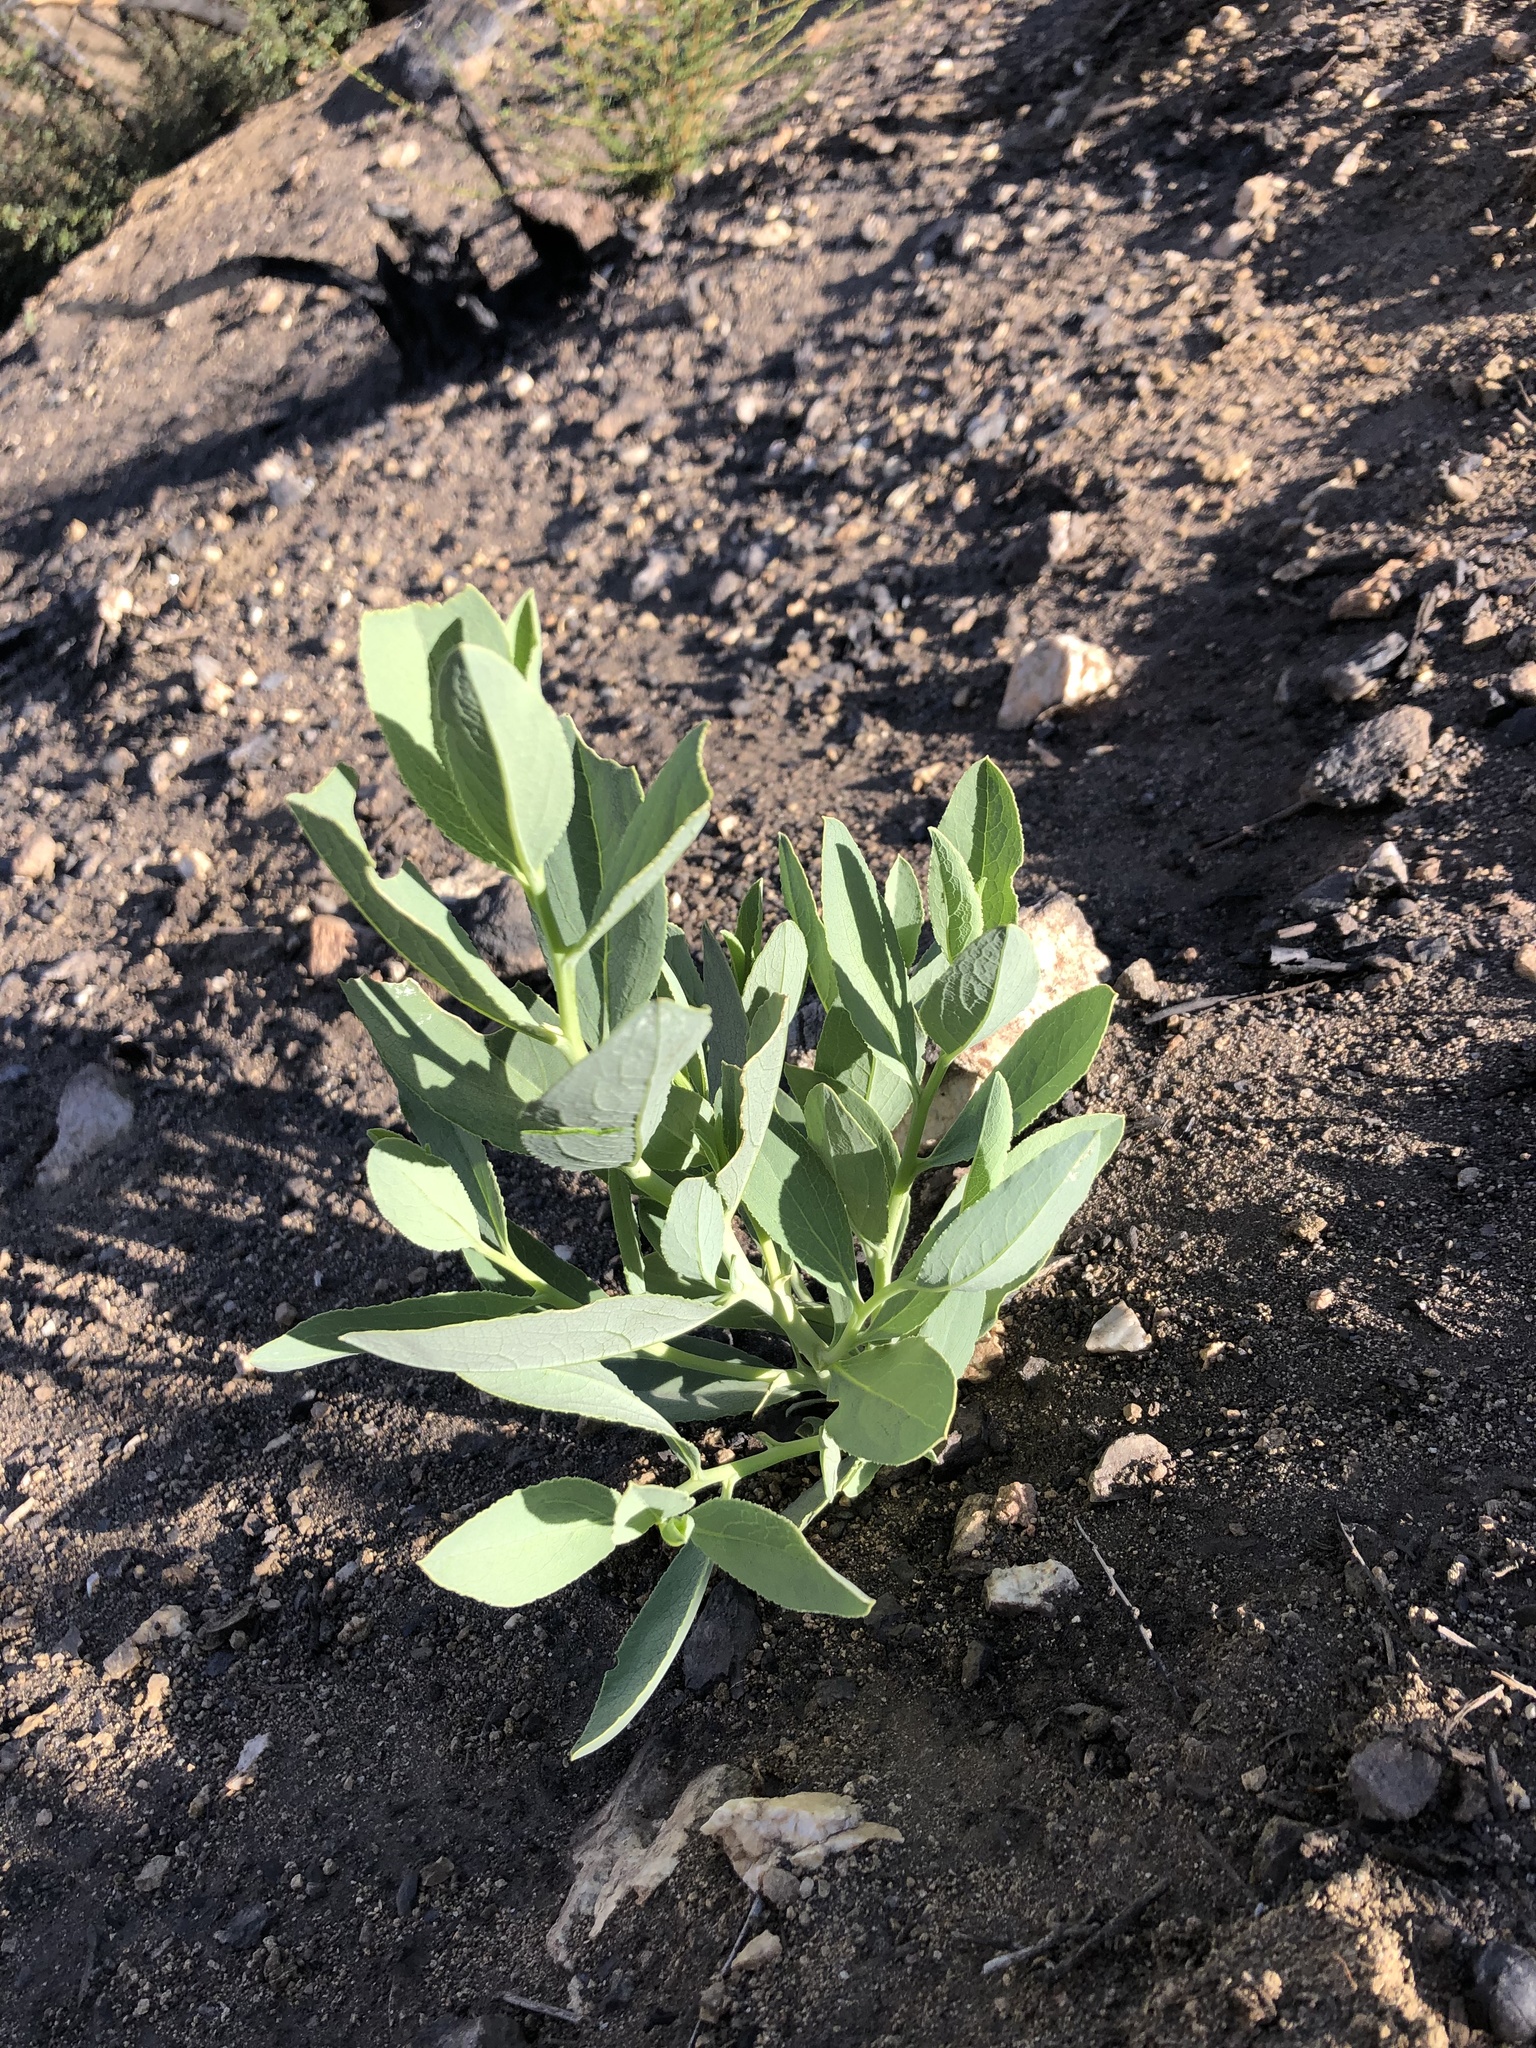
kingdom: Plantae
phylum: Tracheophyta
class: Magnoliopsida
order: Ranunculales
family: Papaveraceae
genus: Dendromecon
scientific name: Dendromecon rigida
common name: Tree poppy
